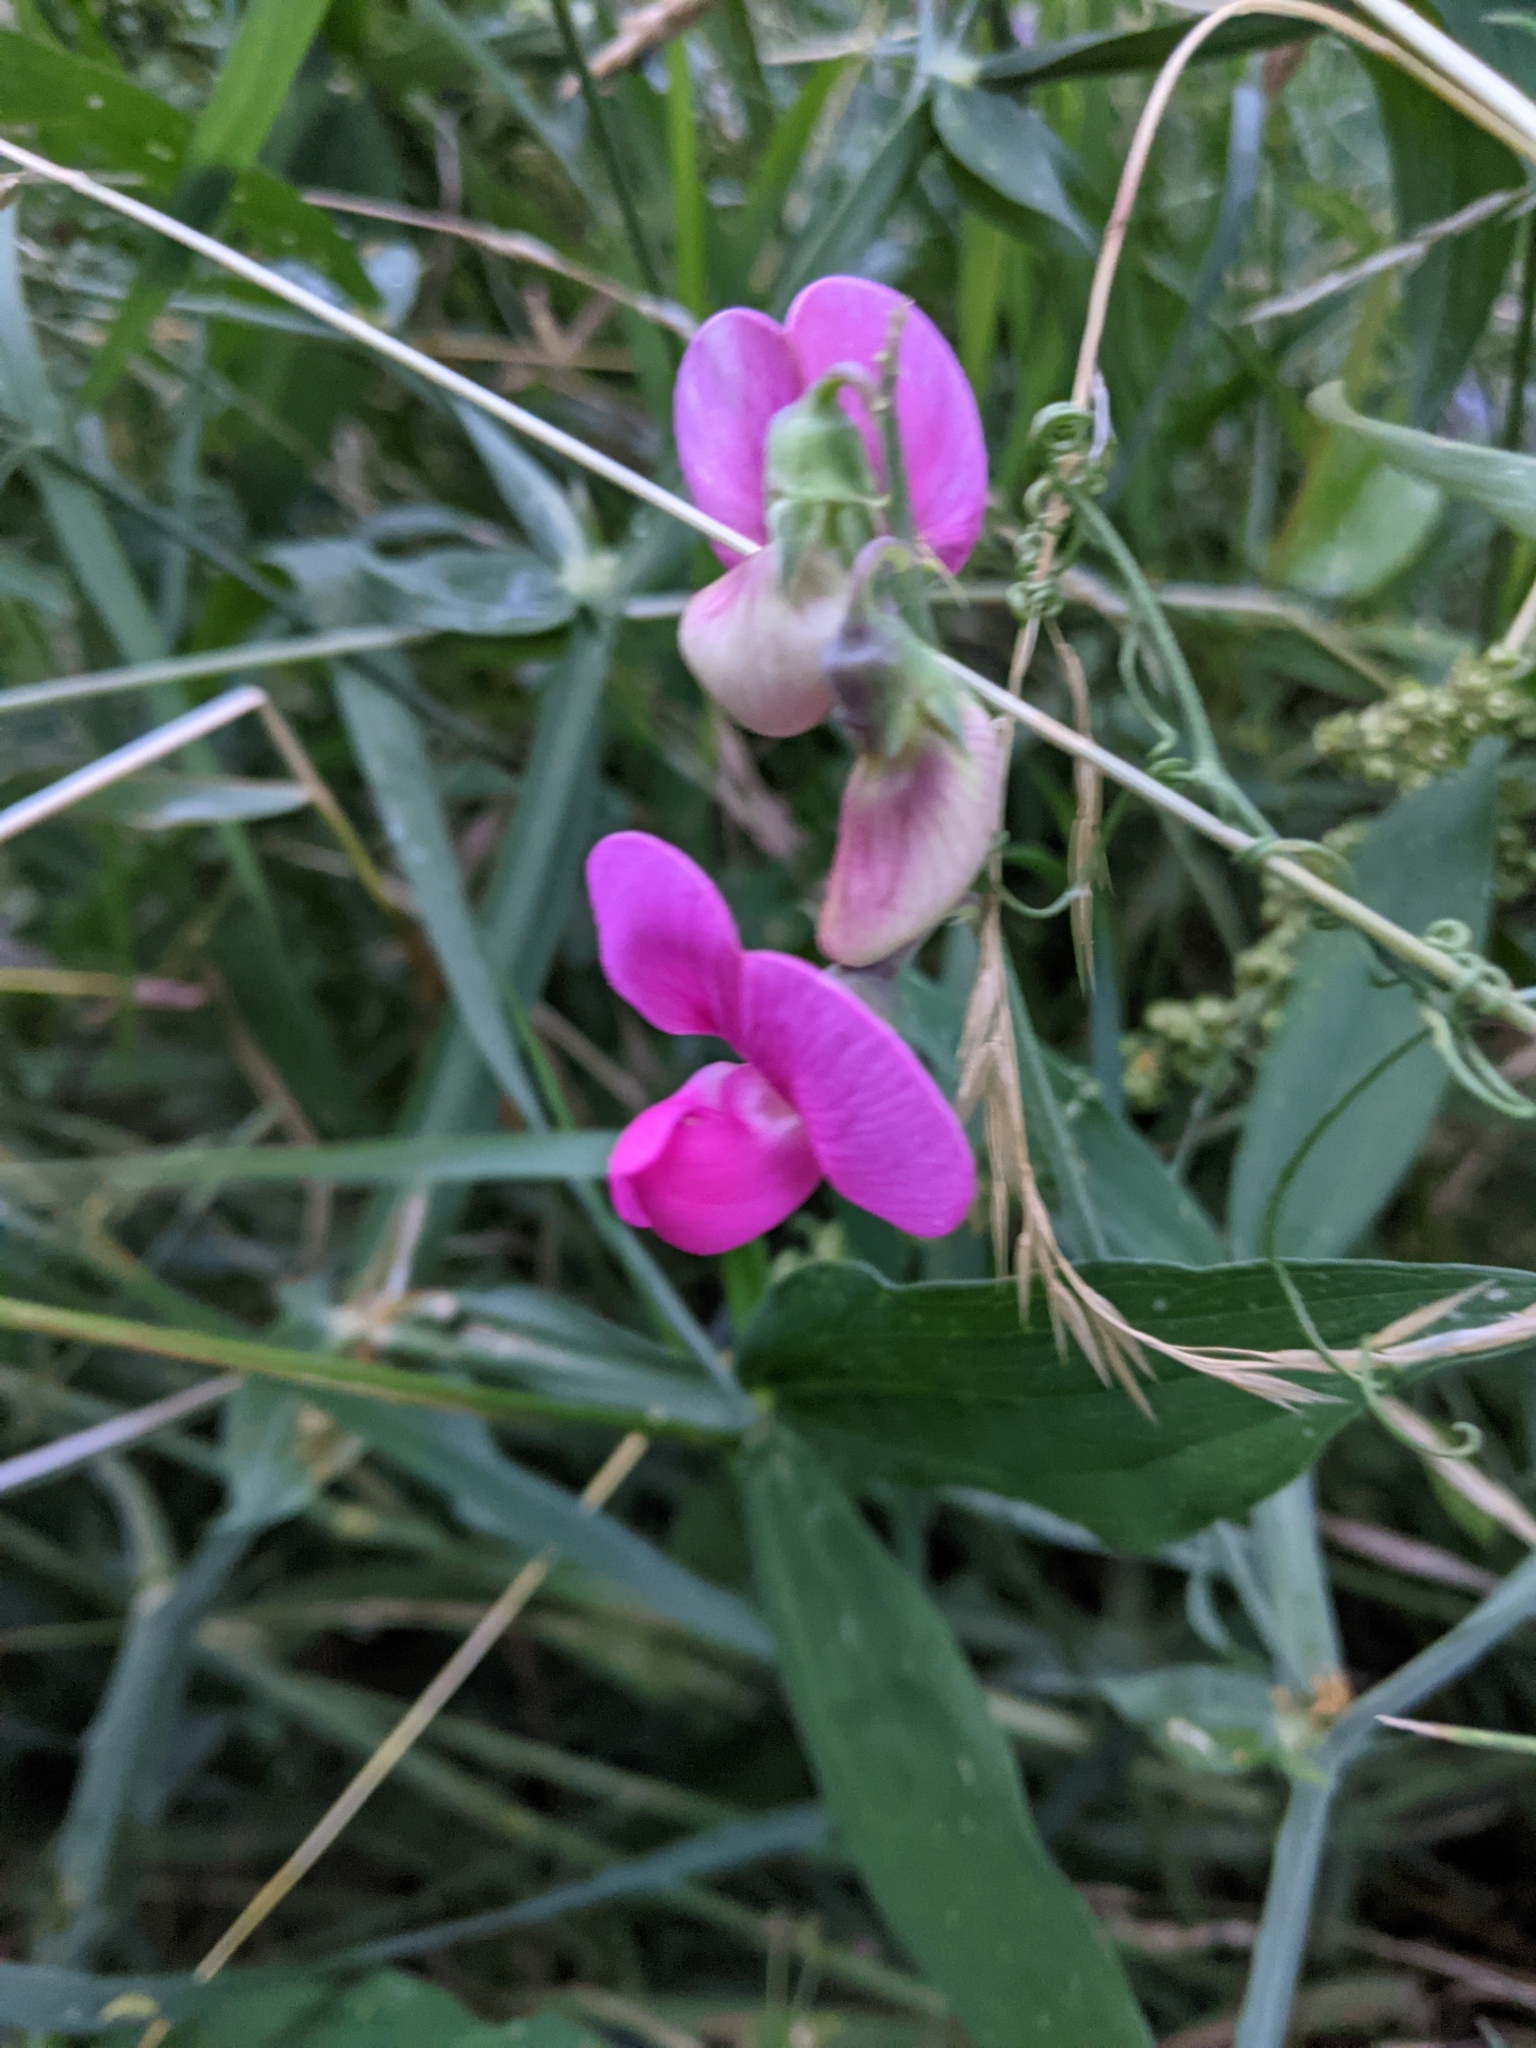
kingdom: Plantae
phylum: Tracheophyta
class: Magnoliopsida
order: Fabales
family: Fabaceae
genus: Lathyrus
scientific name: Lathyrus latifolius
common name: Perennial pea
